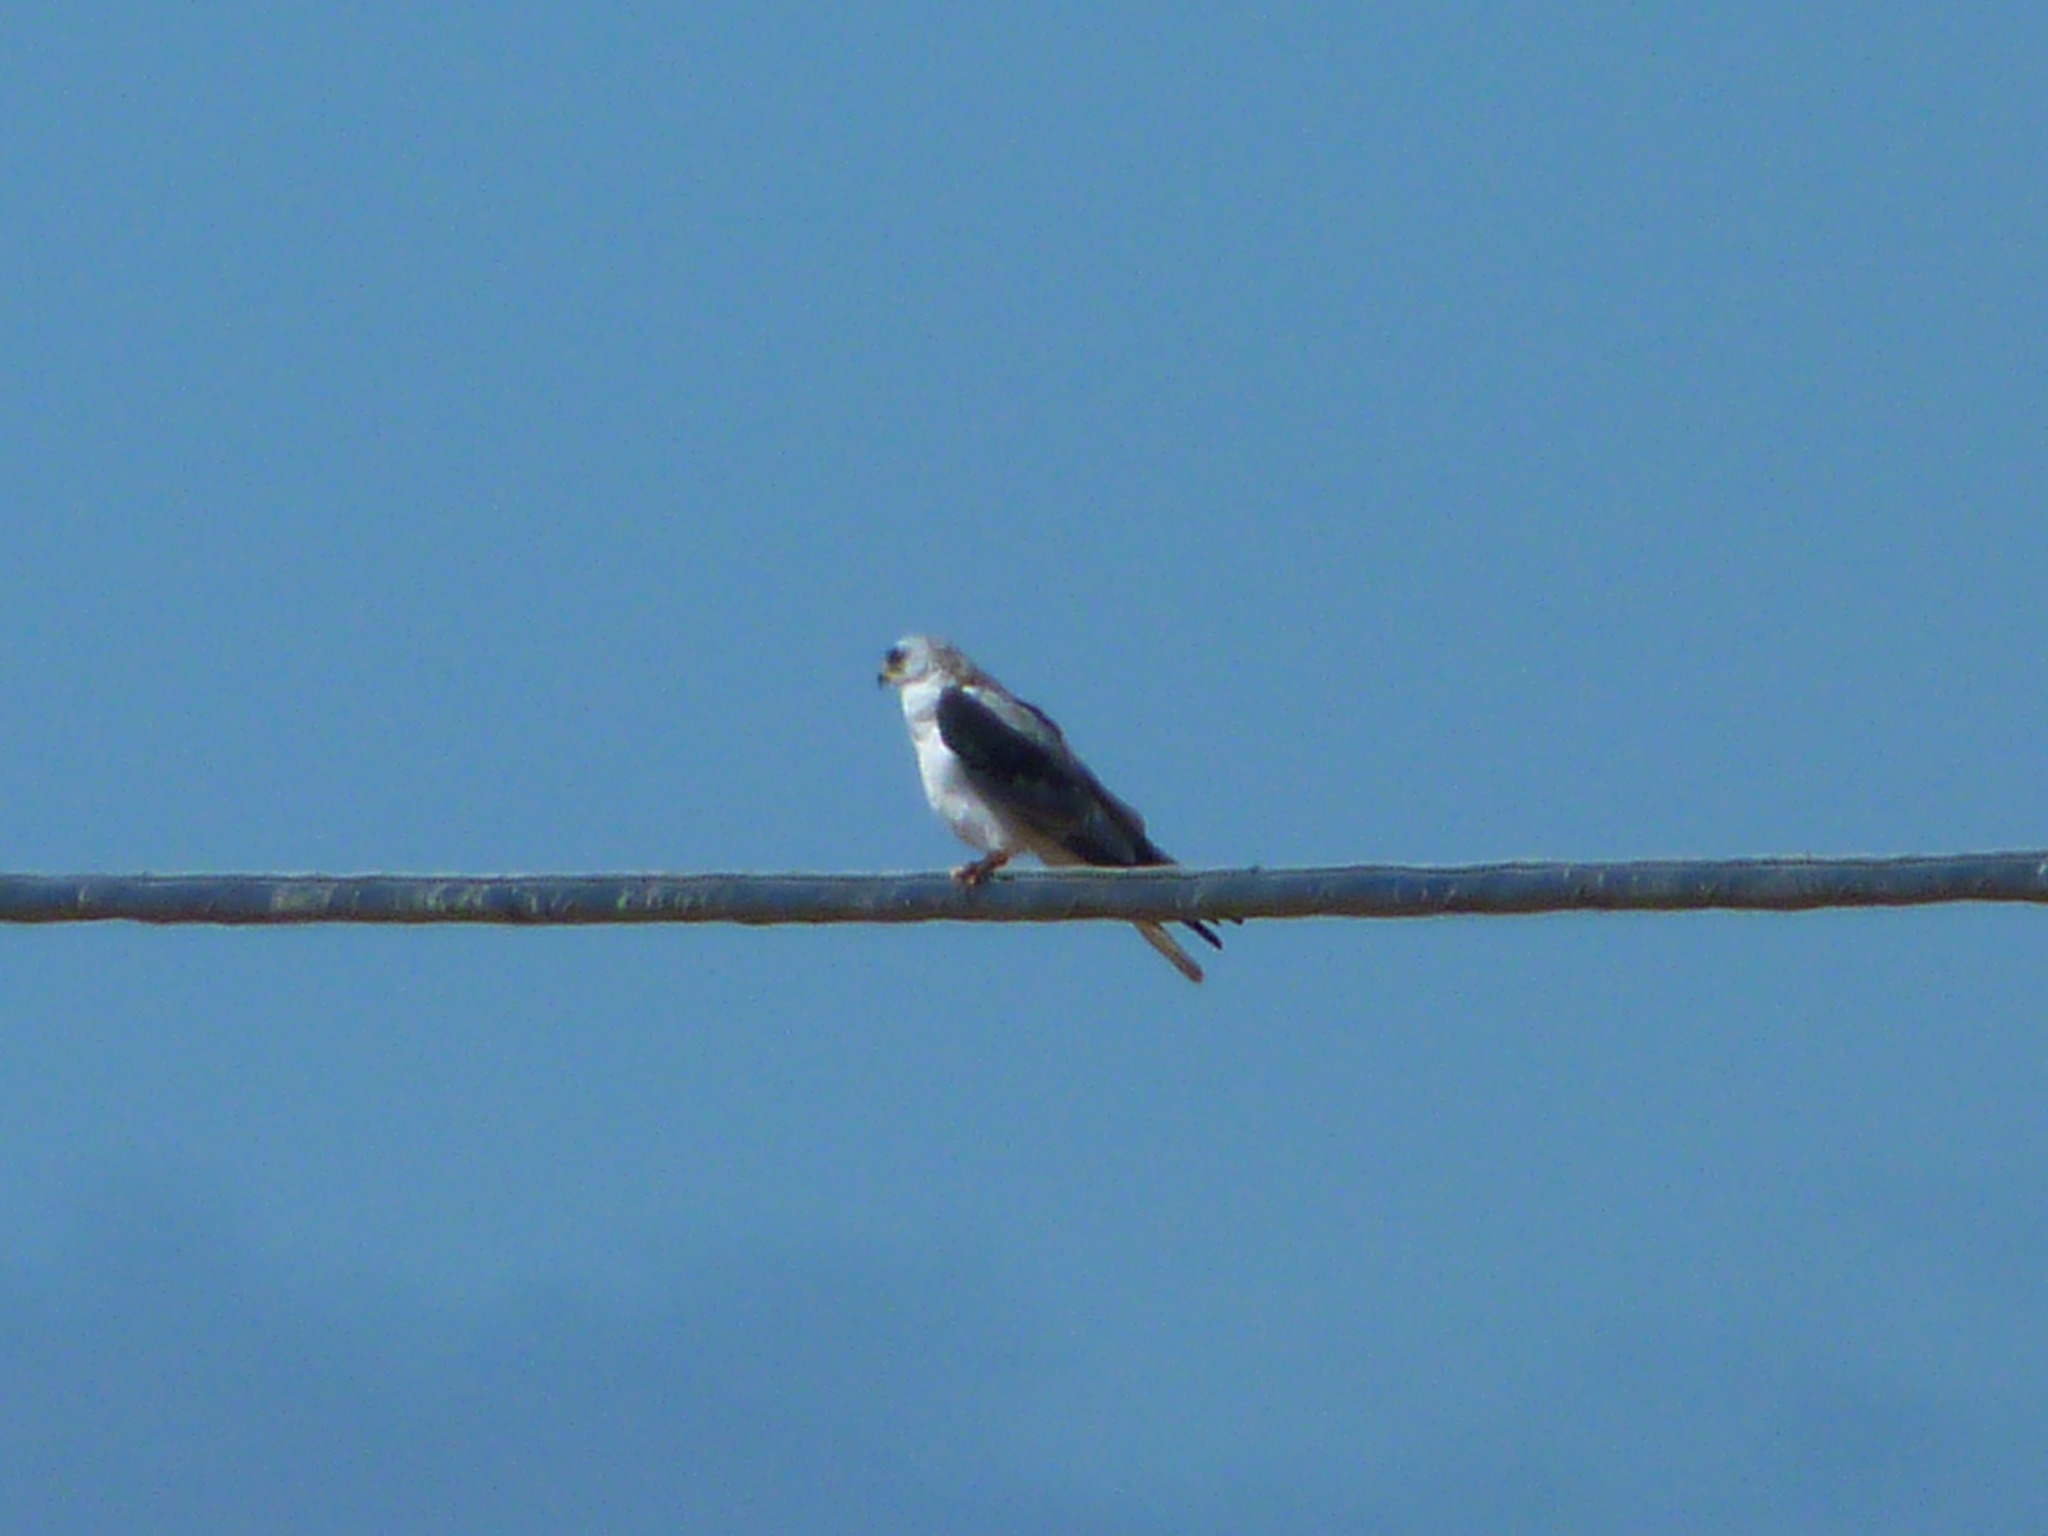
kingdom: Animalia
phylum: Chordata
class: Aves
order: Accipitriformes
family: Accipitridae
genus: Elanus
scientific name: Elanus leucurus
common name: White-tailed kite
